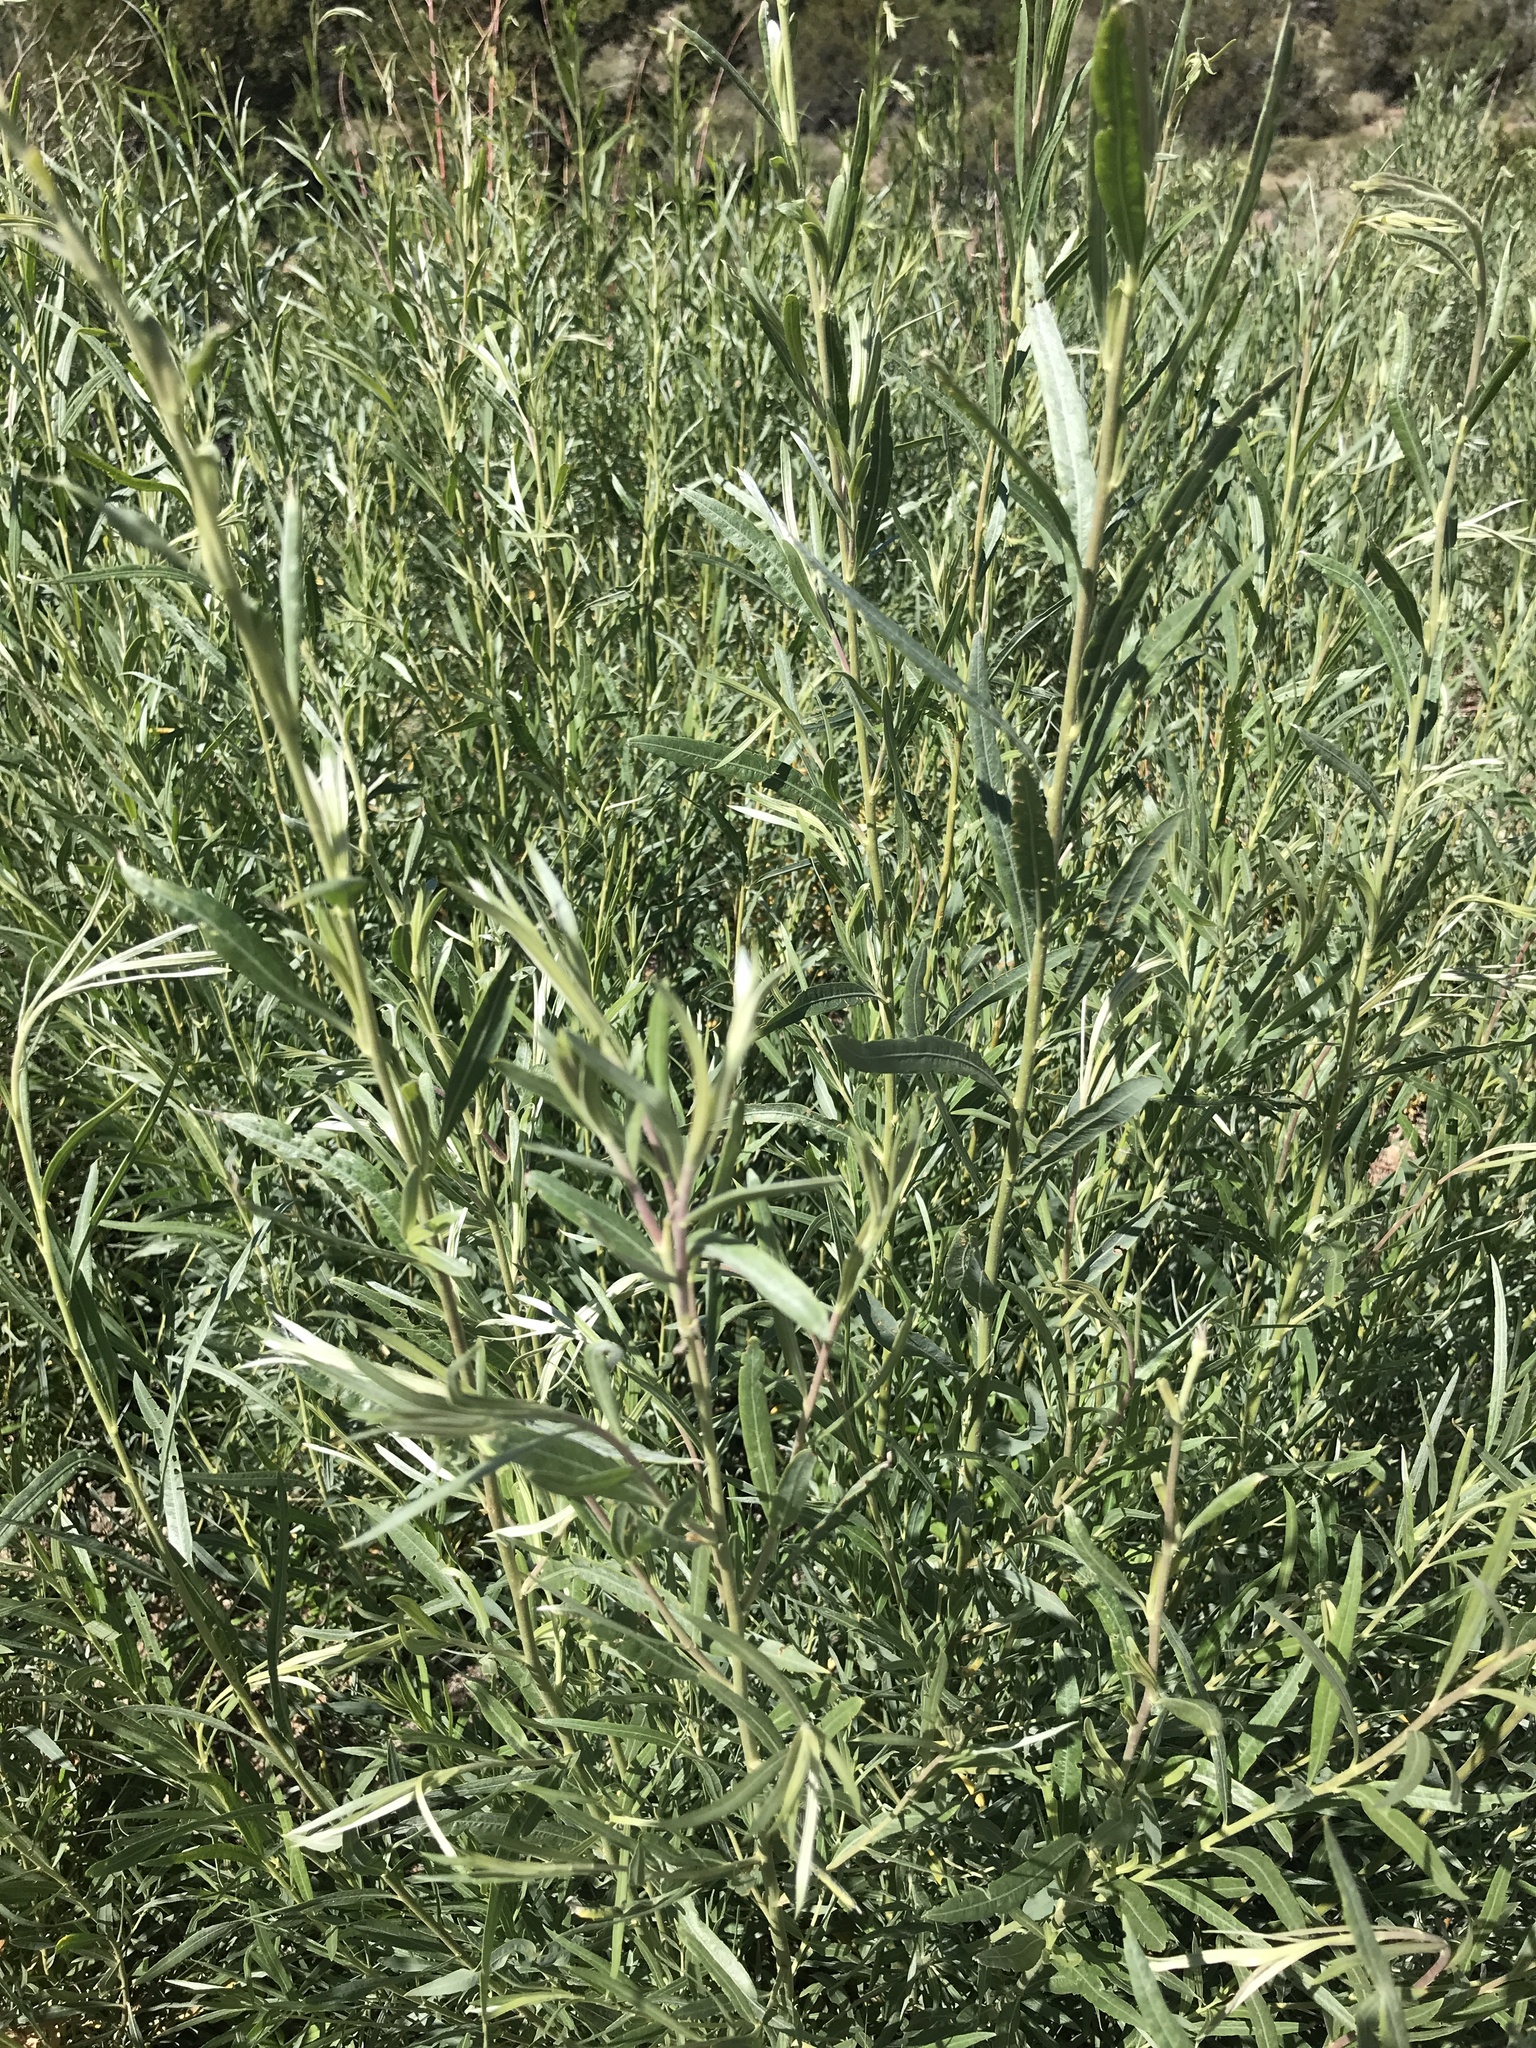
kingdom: Plantae
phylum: Tracheophyta
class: Magnoliopsida
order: Malpighiales
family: Salicaceae
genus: Salix
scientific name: Salix exigua
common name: Coyote willow
